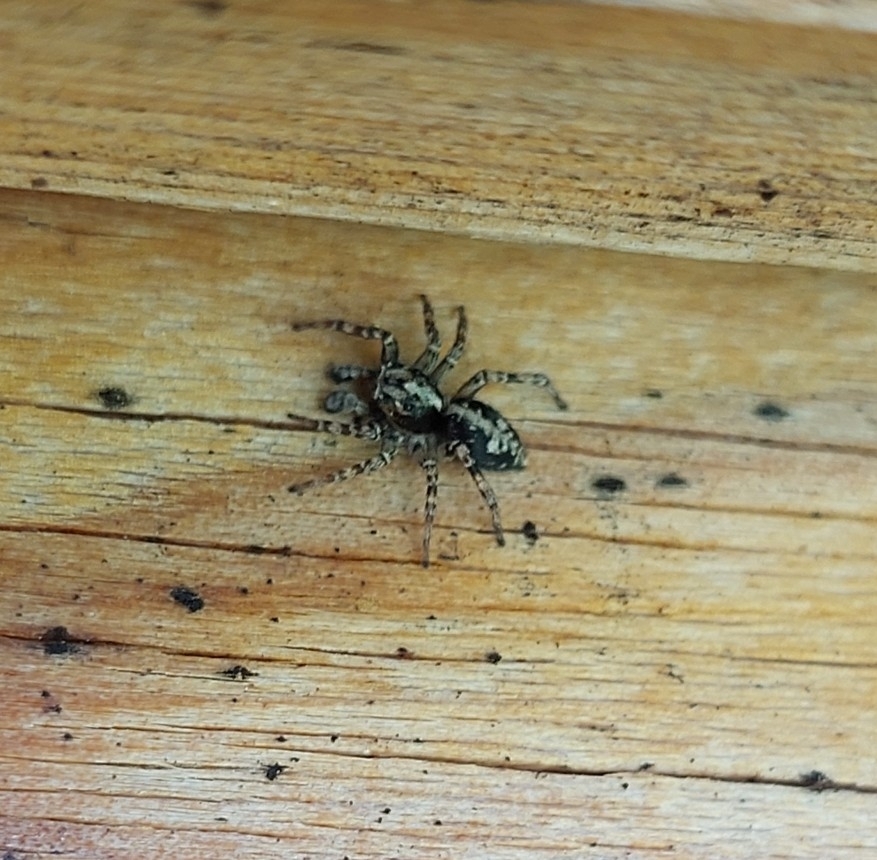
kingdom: Animalia
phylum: Arthropoda
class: Arachnida
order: Araneae
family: Salticidae
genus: Attulus
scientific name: Attulus terebratus
